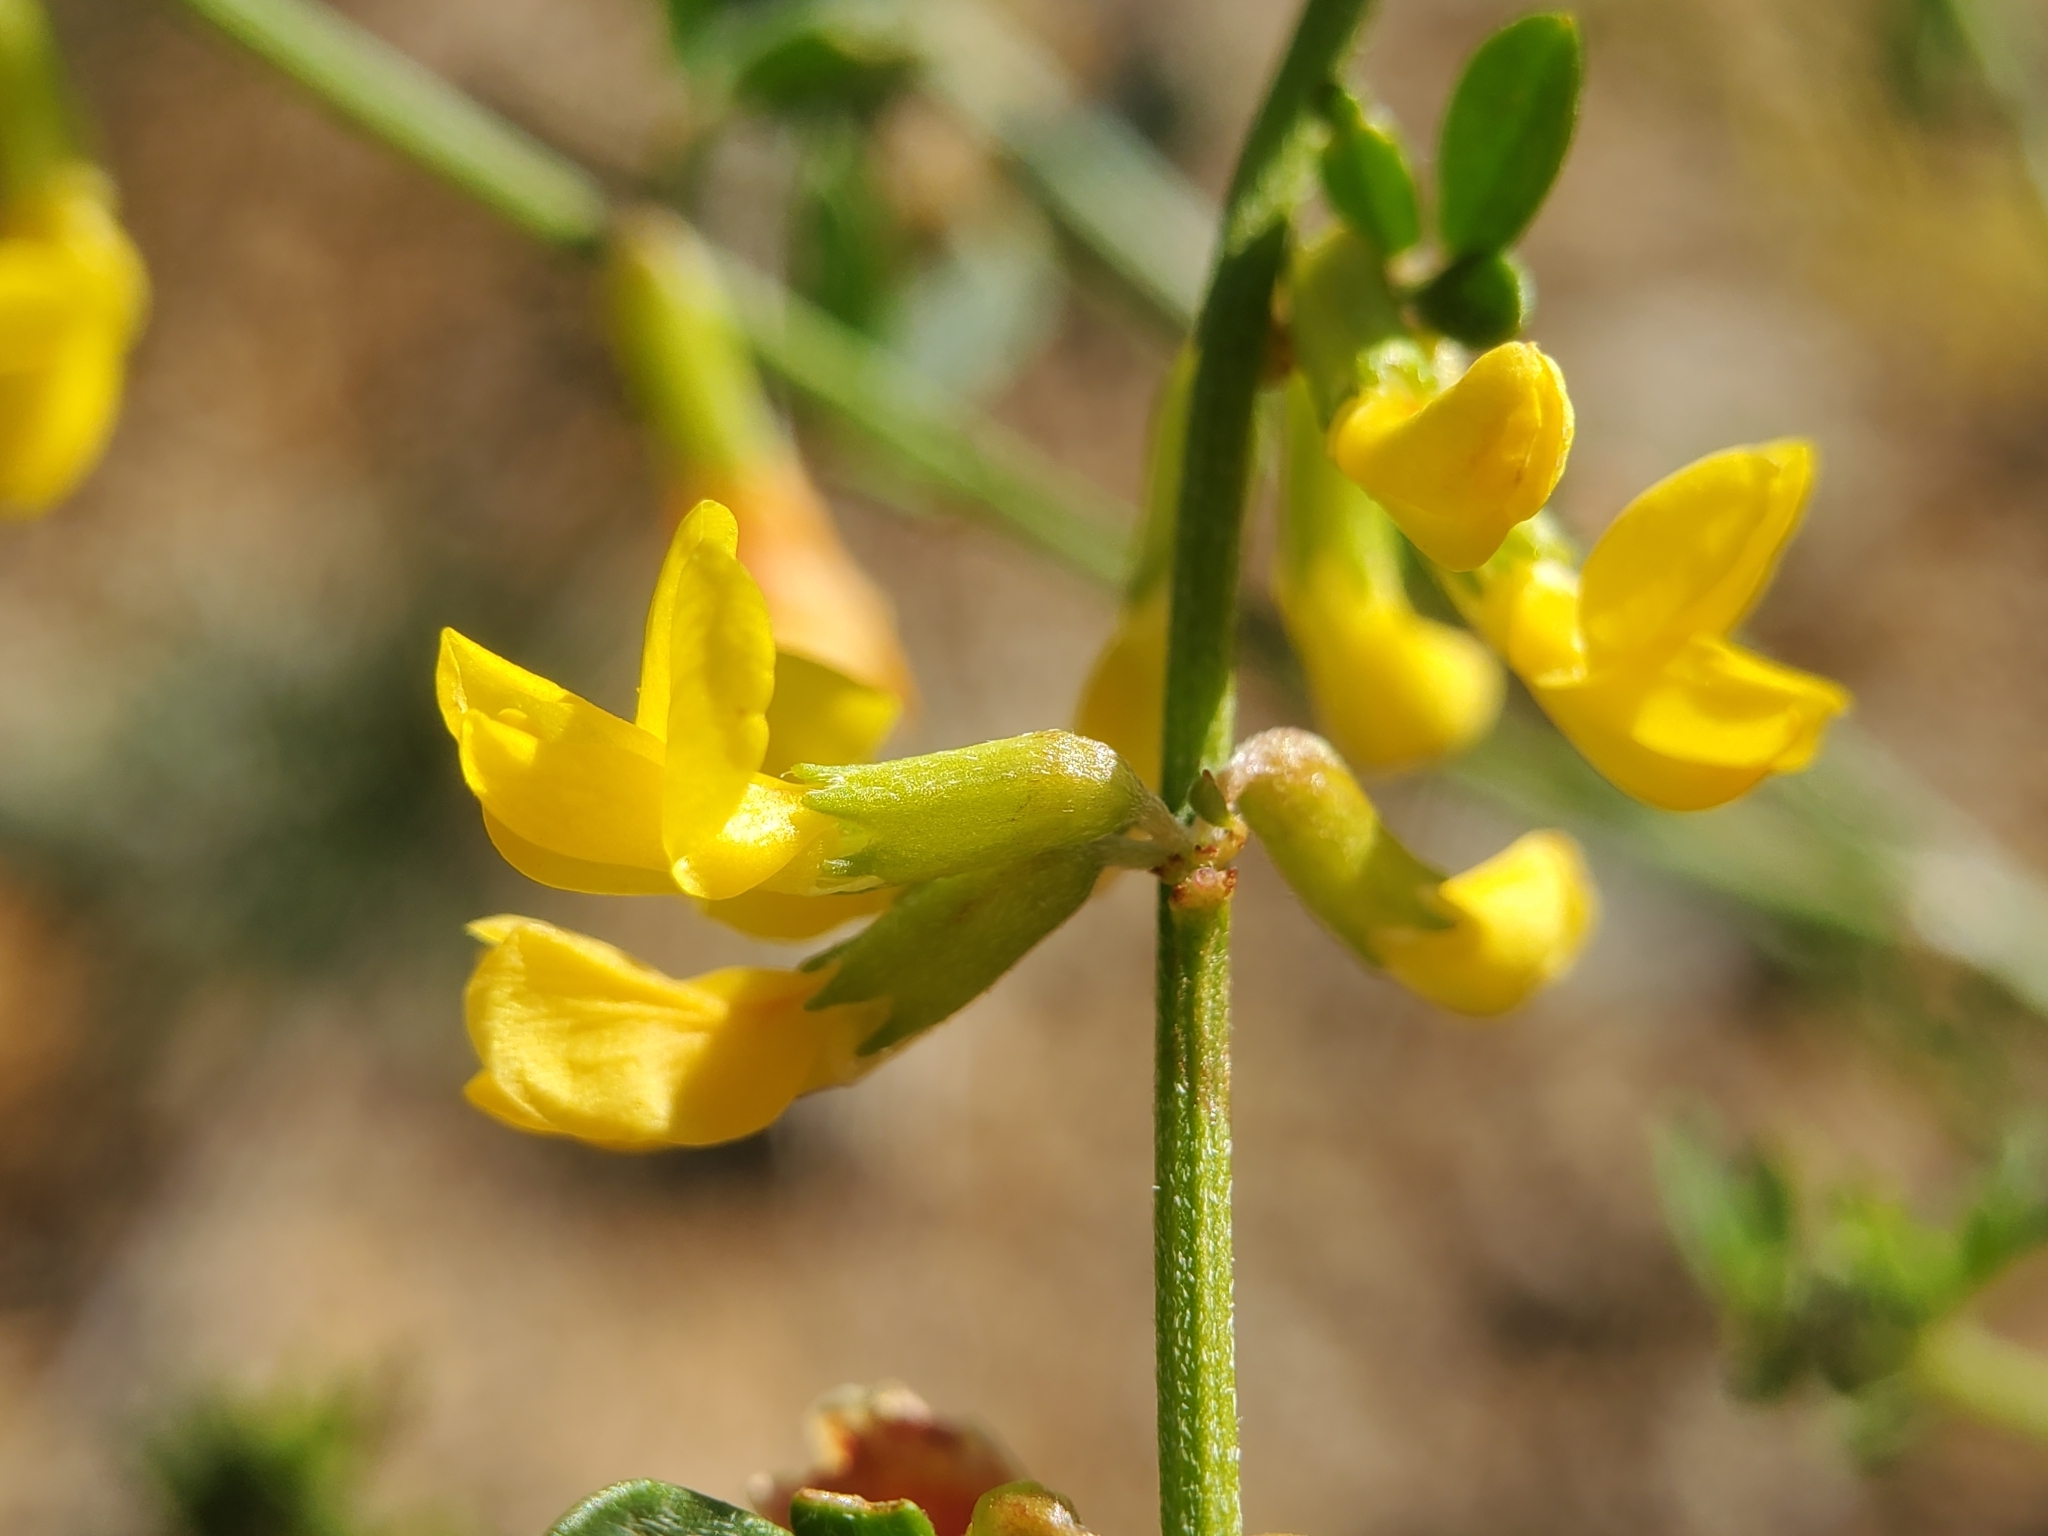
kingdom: Plantae
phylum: Tracheophyta
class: Magnoliopsida
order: Fabales
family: Fabaceae
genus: Acmispon
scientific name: Acmispon glaber
